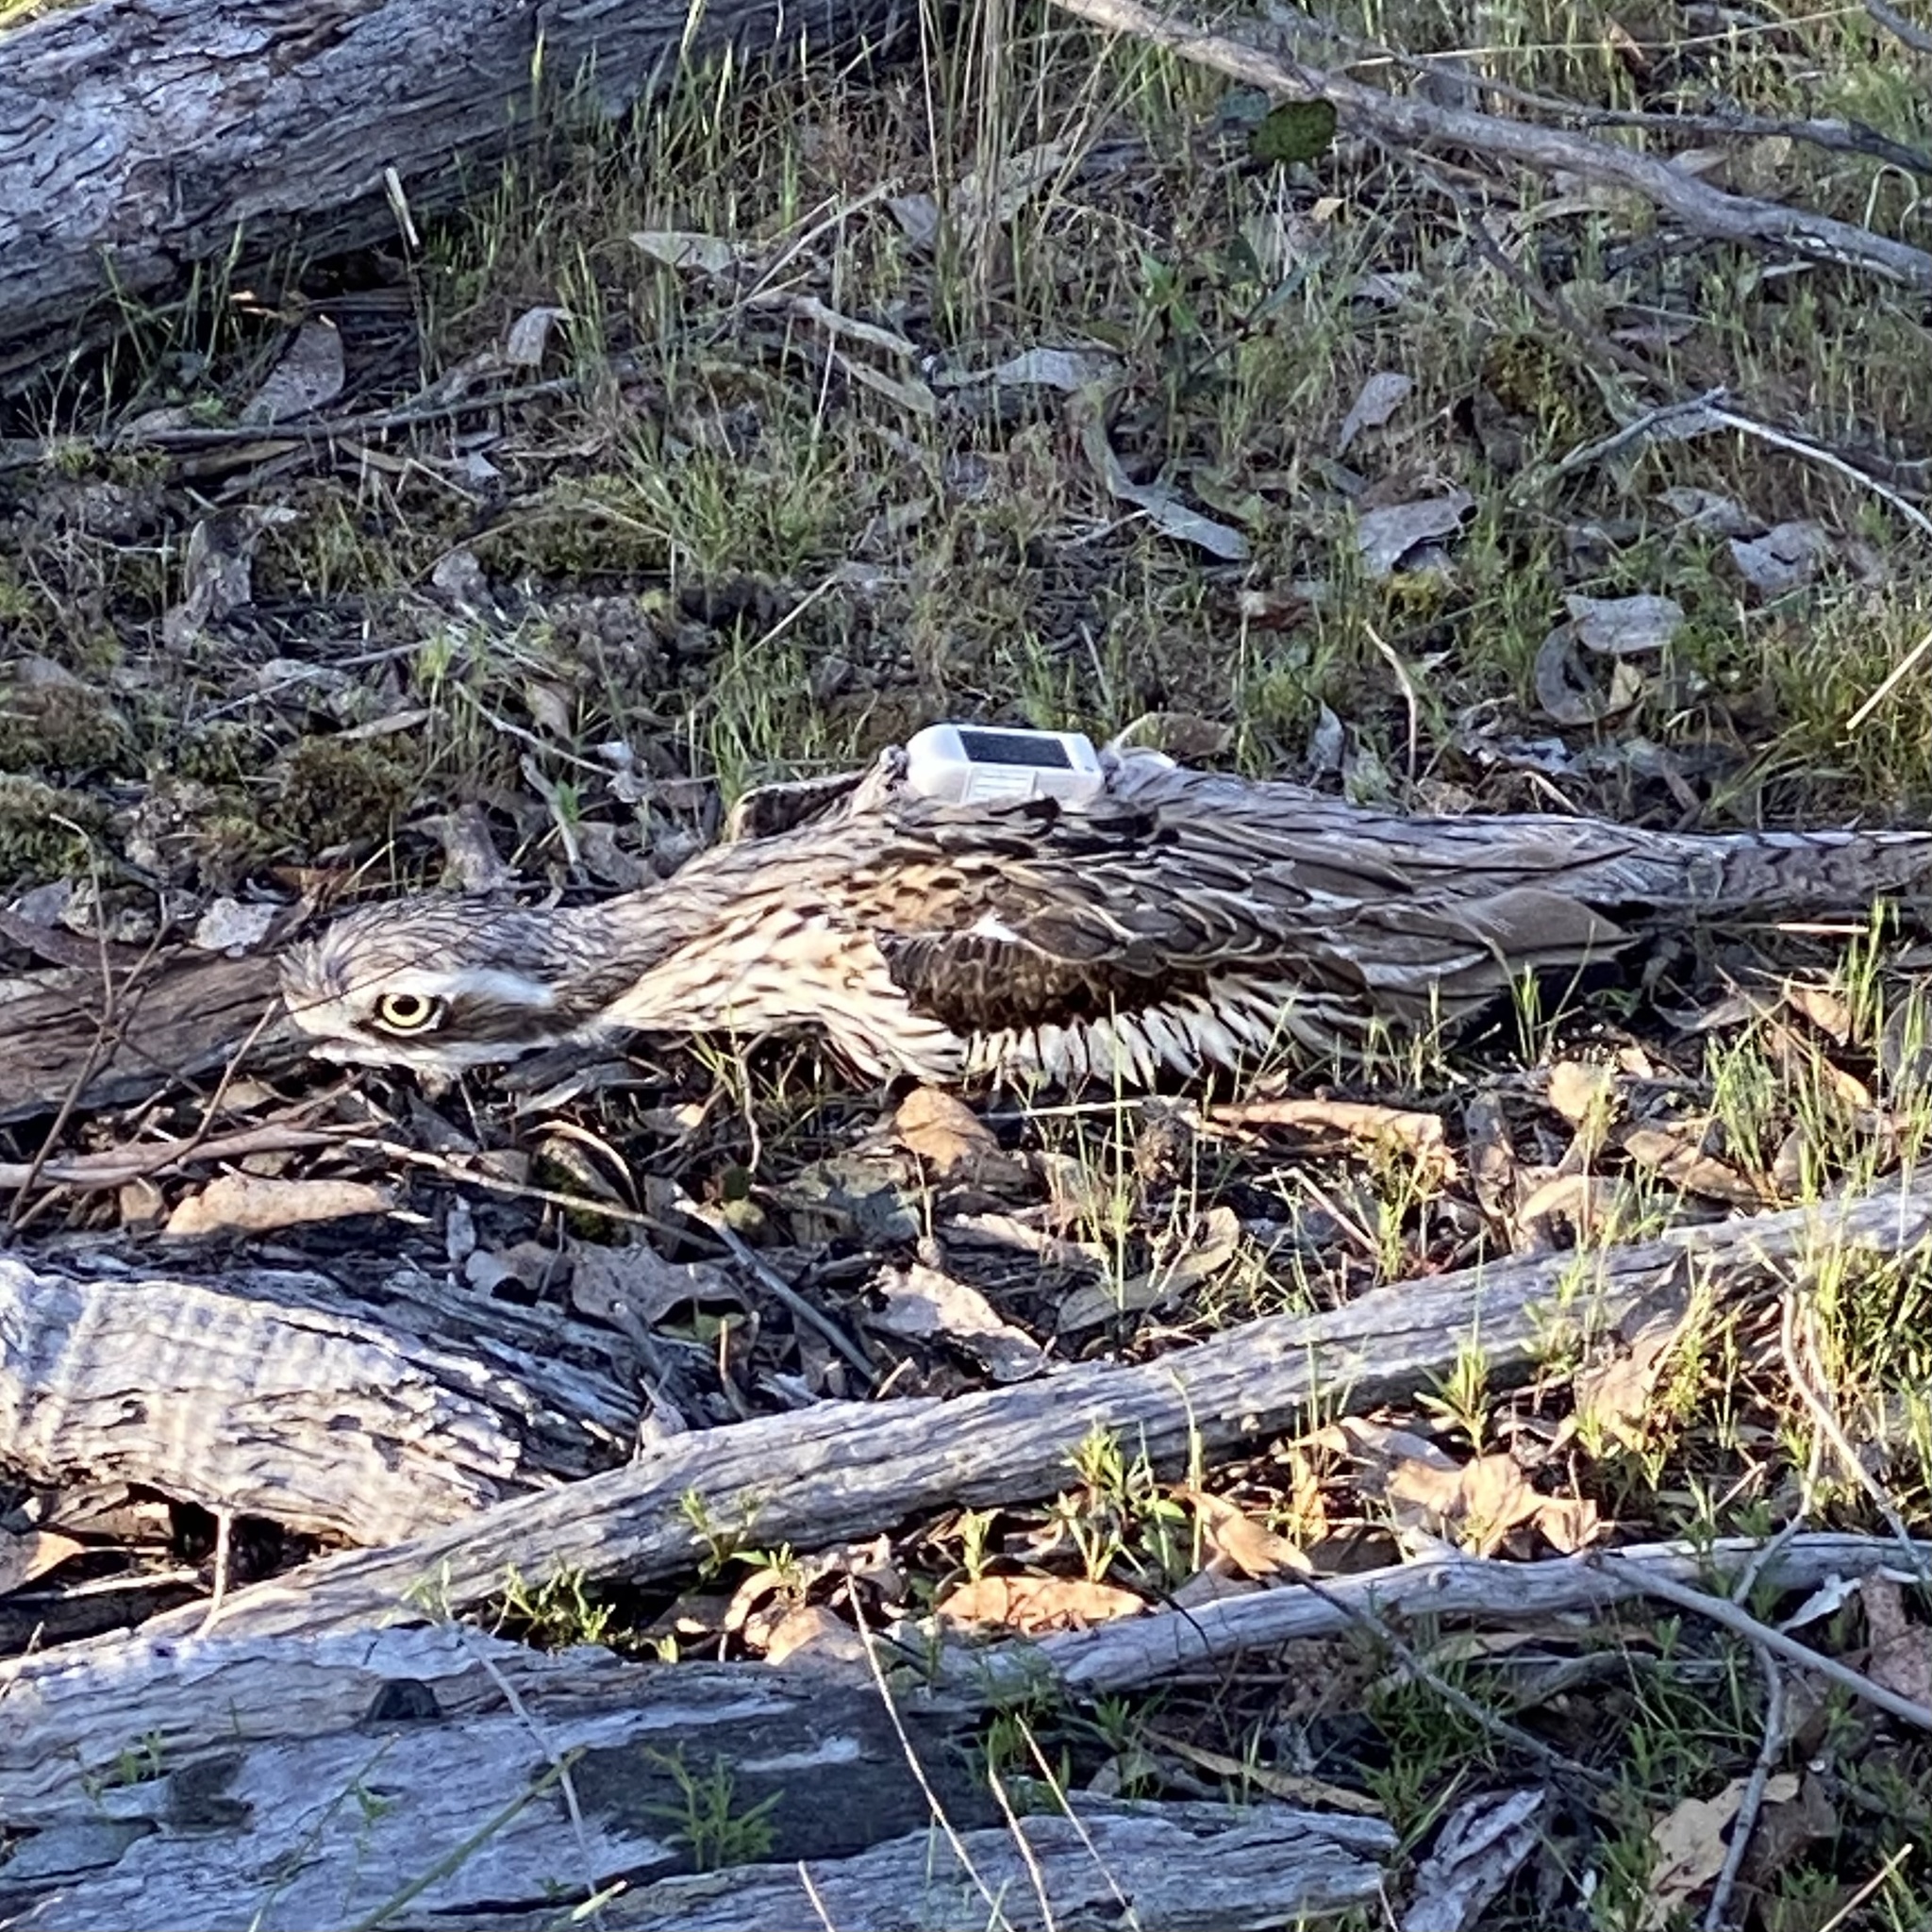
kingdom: Animalia
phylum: Chordata
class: Aves
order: Charadriiformes
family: Burhinidae
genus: Burhinus
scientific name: Burhinus grallarius
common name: Bush stone-curlew
